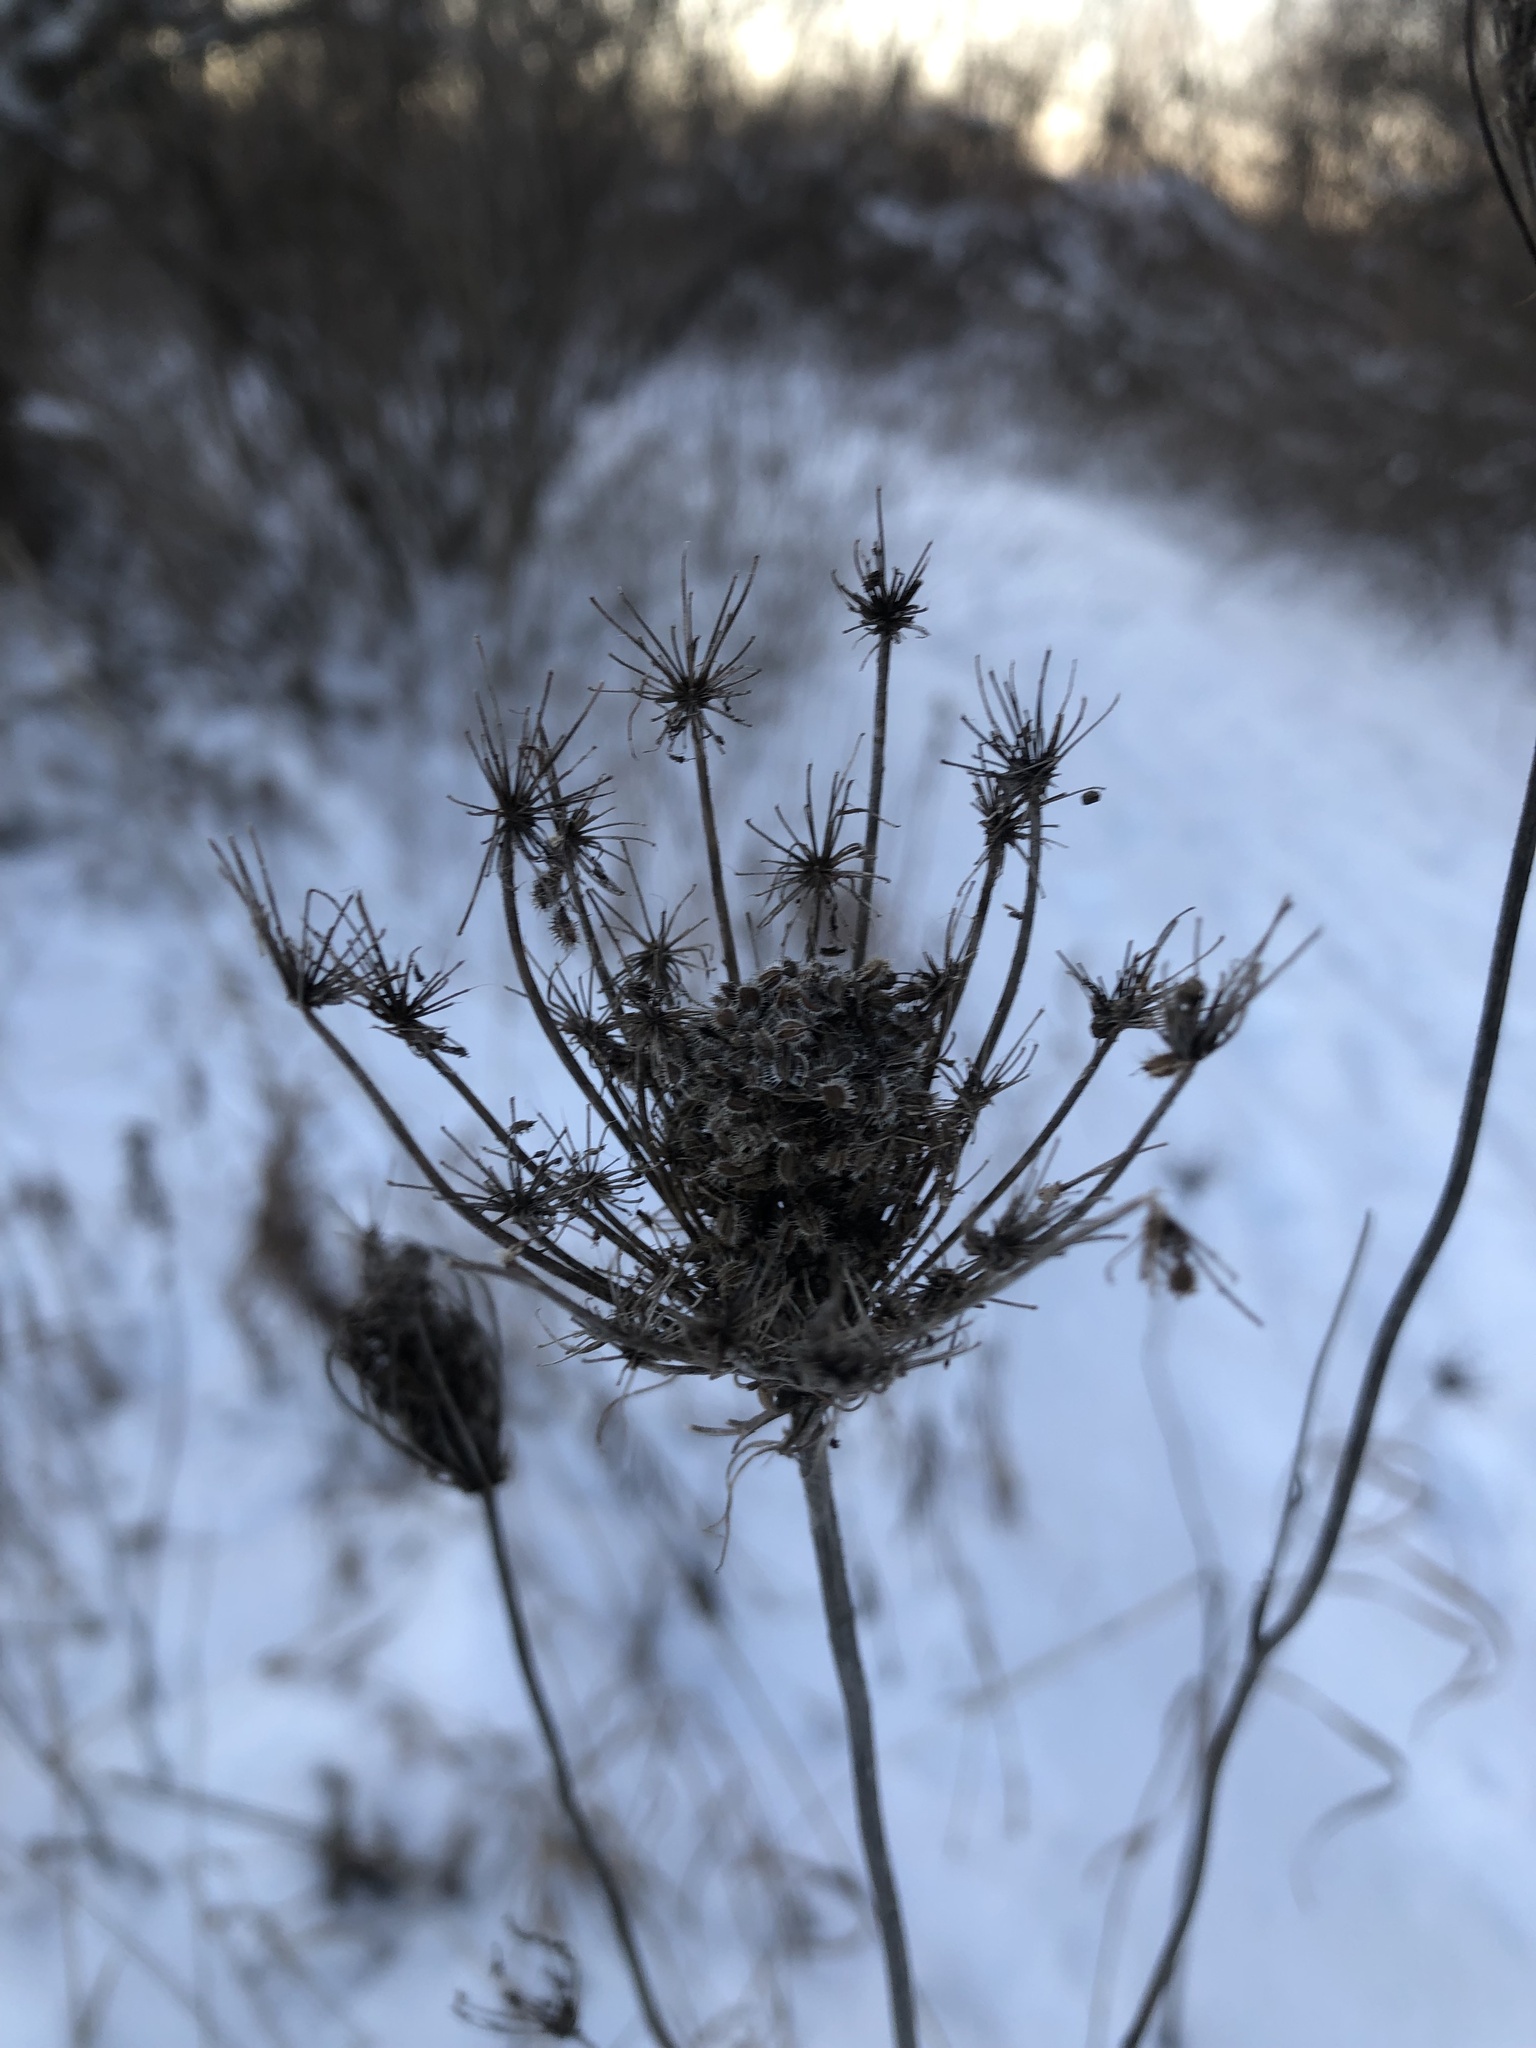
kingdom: Plantae
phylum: Tracheophyta
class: Magnoliopsida
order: Apiales
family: Apiaceae
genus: Daucus
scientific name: Daucus carota
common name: Wild carrot
